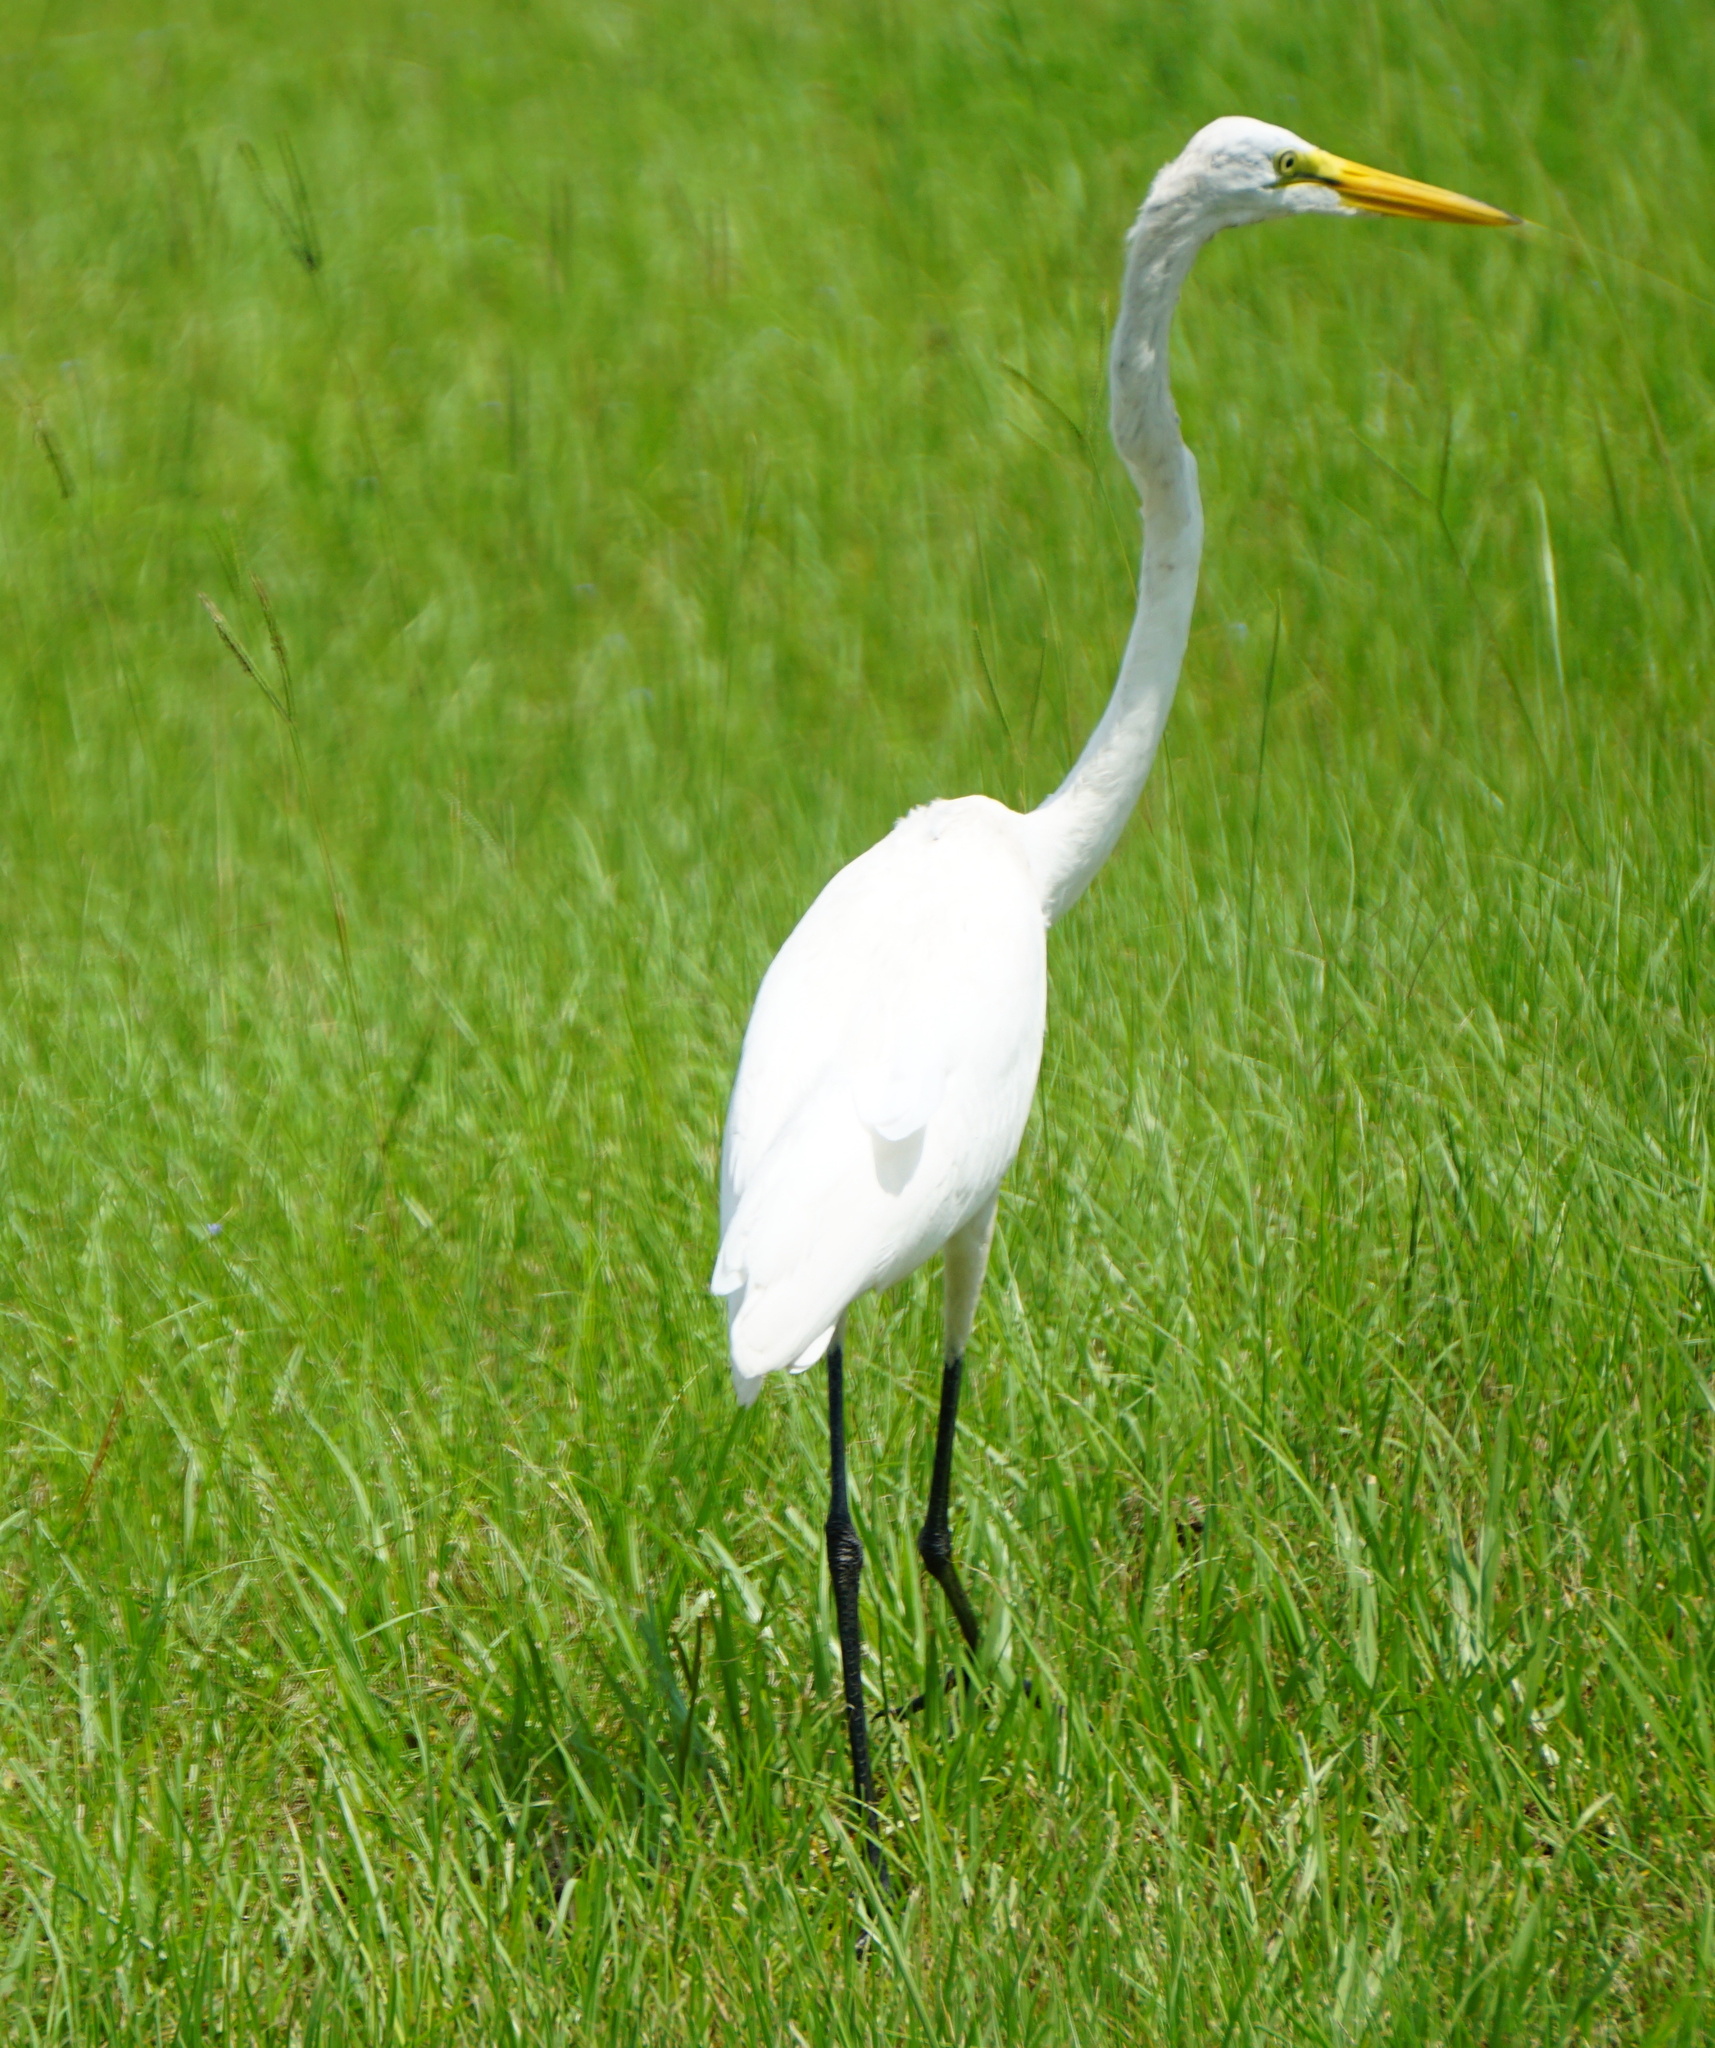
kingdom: Animalia
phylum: Chordata
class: Aves
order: Pelecaniformes
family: Ardeidae
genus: Ardea
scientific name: Ardea alba
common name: Great egret
